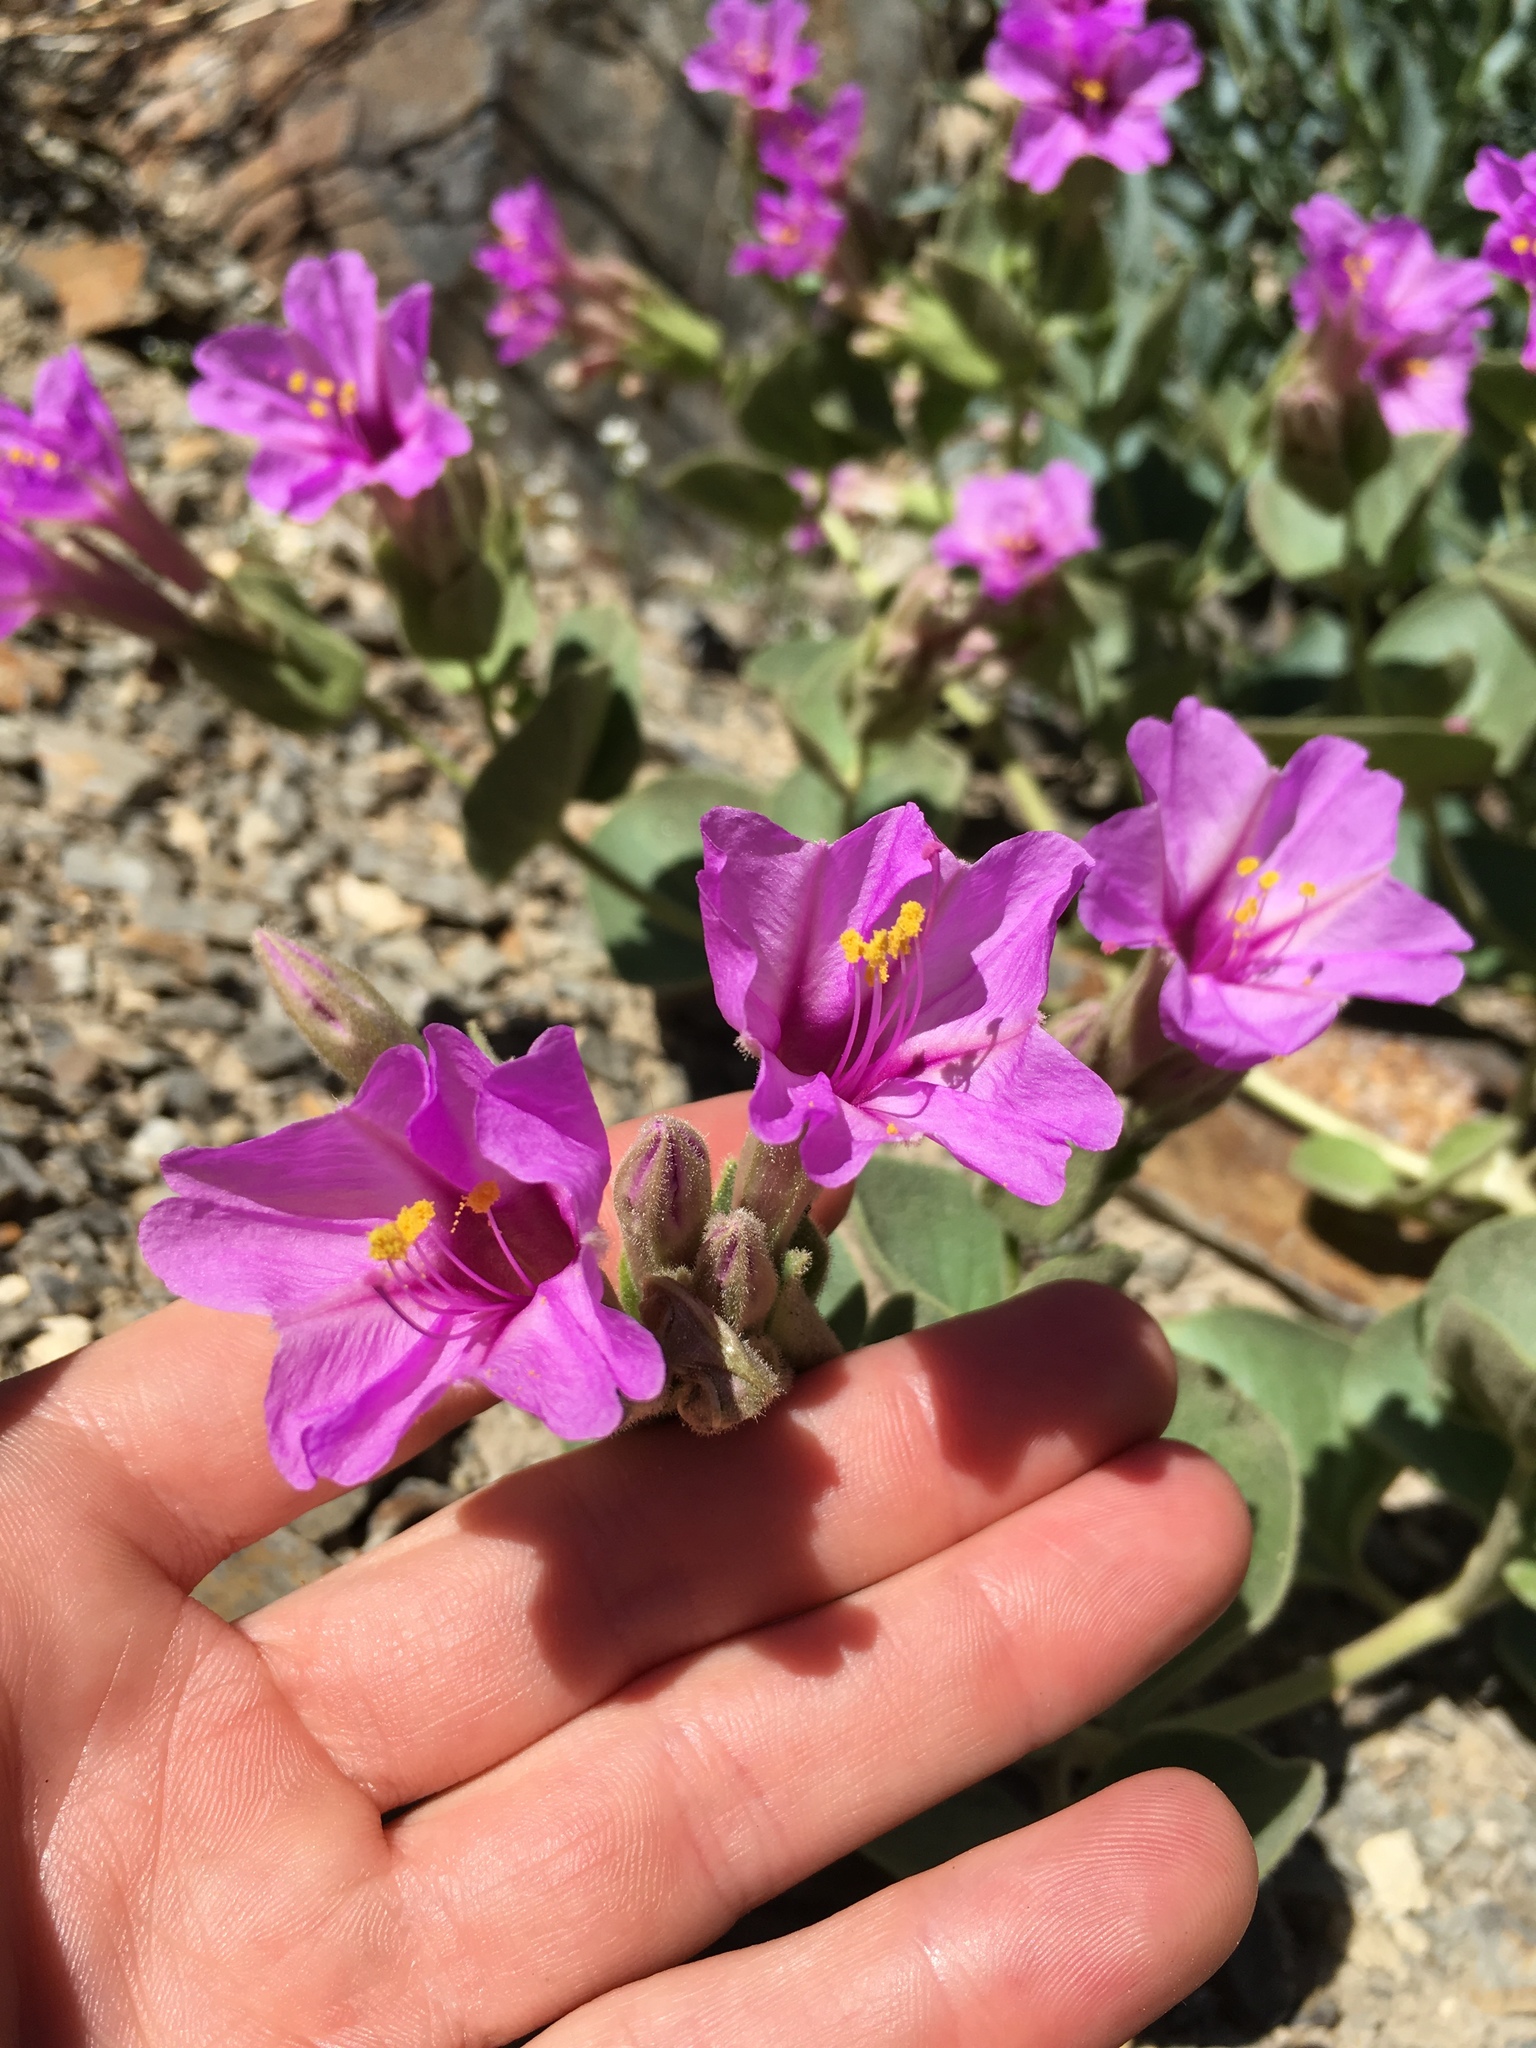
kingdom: Plantae
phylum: Tracheophyta
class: Magnoliopsida
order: Caryophyllales
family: Nyctaginaceae
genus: Mirabilis
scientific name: Mirabilis multiflora
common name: Froebel's four-o'clock
